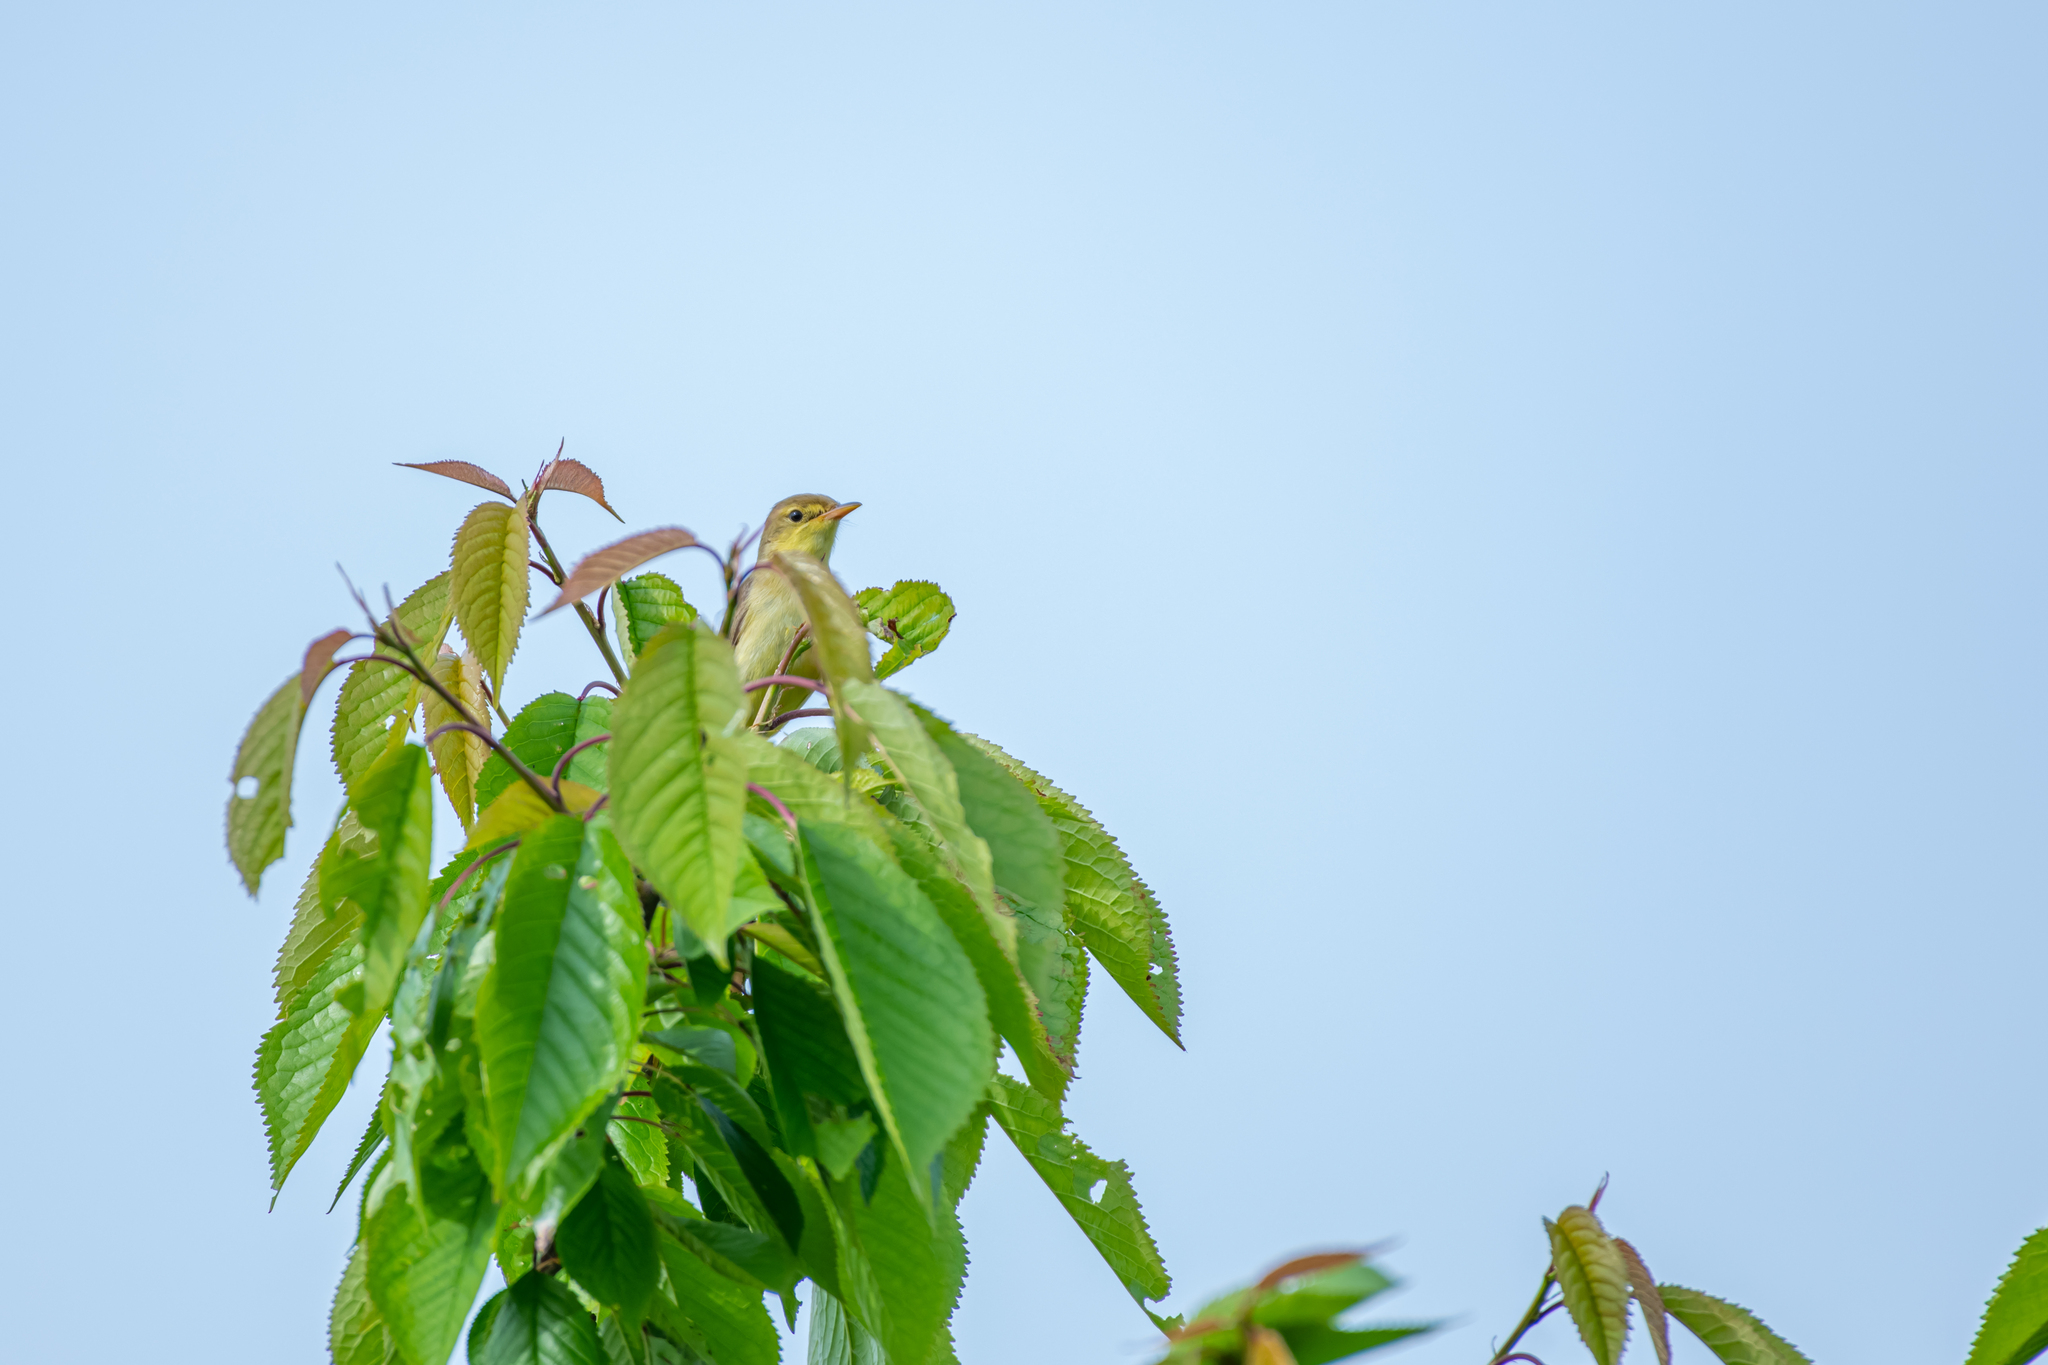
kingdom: Animalia
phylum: Chordata
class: Aves
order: Passeriformes
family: Acrocephalidae
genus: Hippolais
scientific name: Hippolais polyglotta
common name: Melodious warbler
